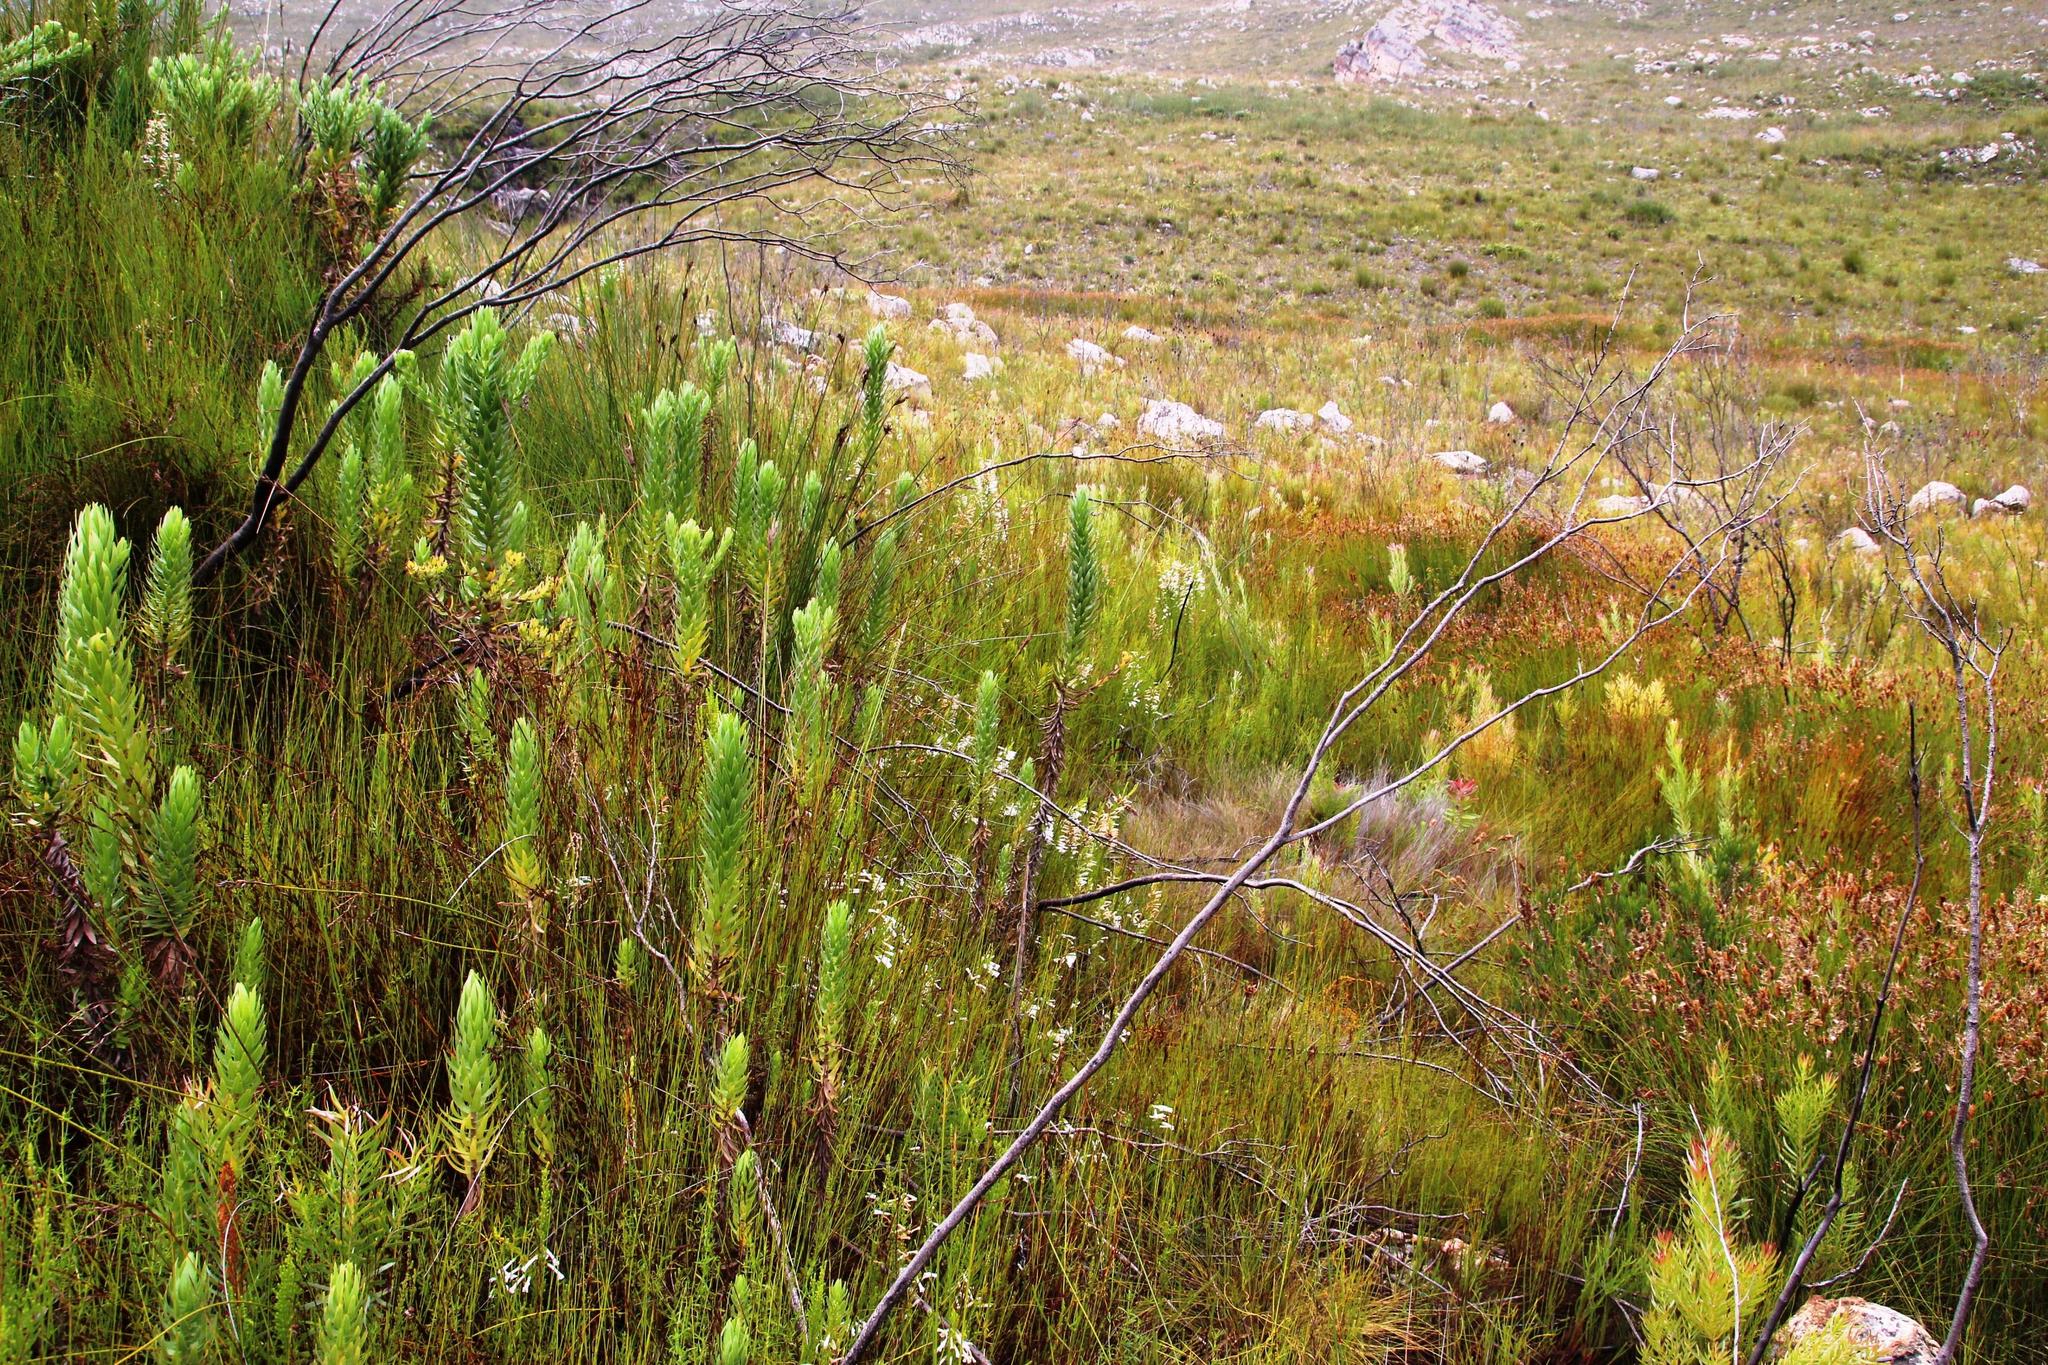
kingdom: Plantae
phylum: Tracheophyta
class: Magnoliopsida
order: Ericales
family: Ericaceae
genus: Erica
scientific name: Erica perspicua
